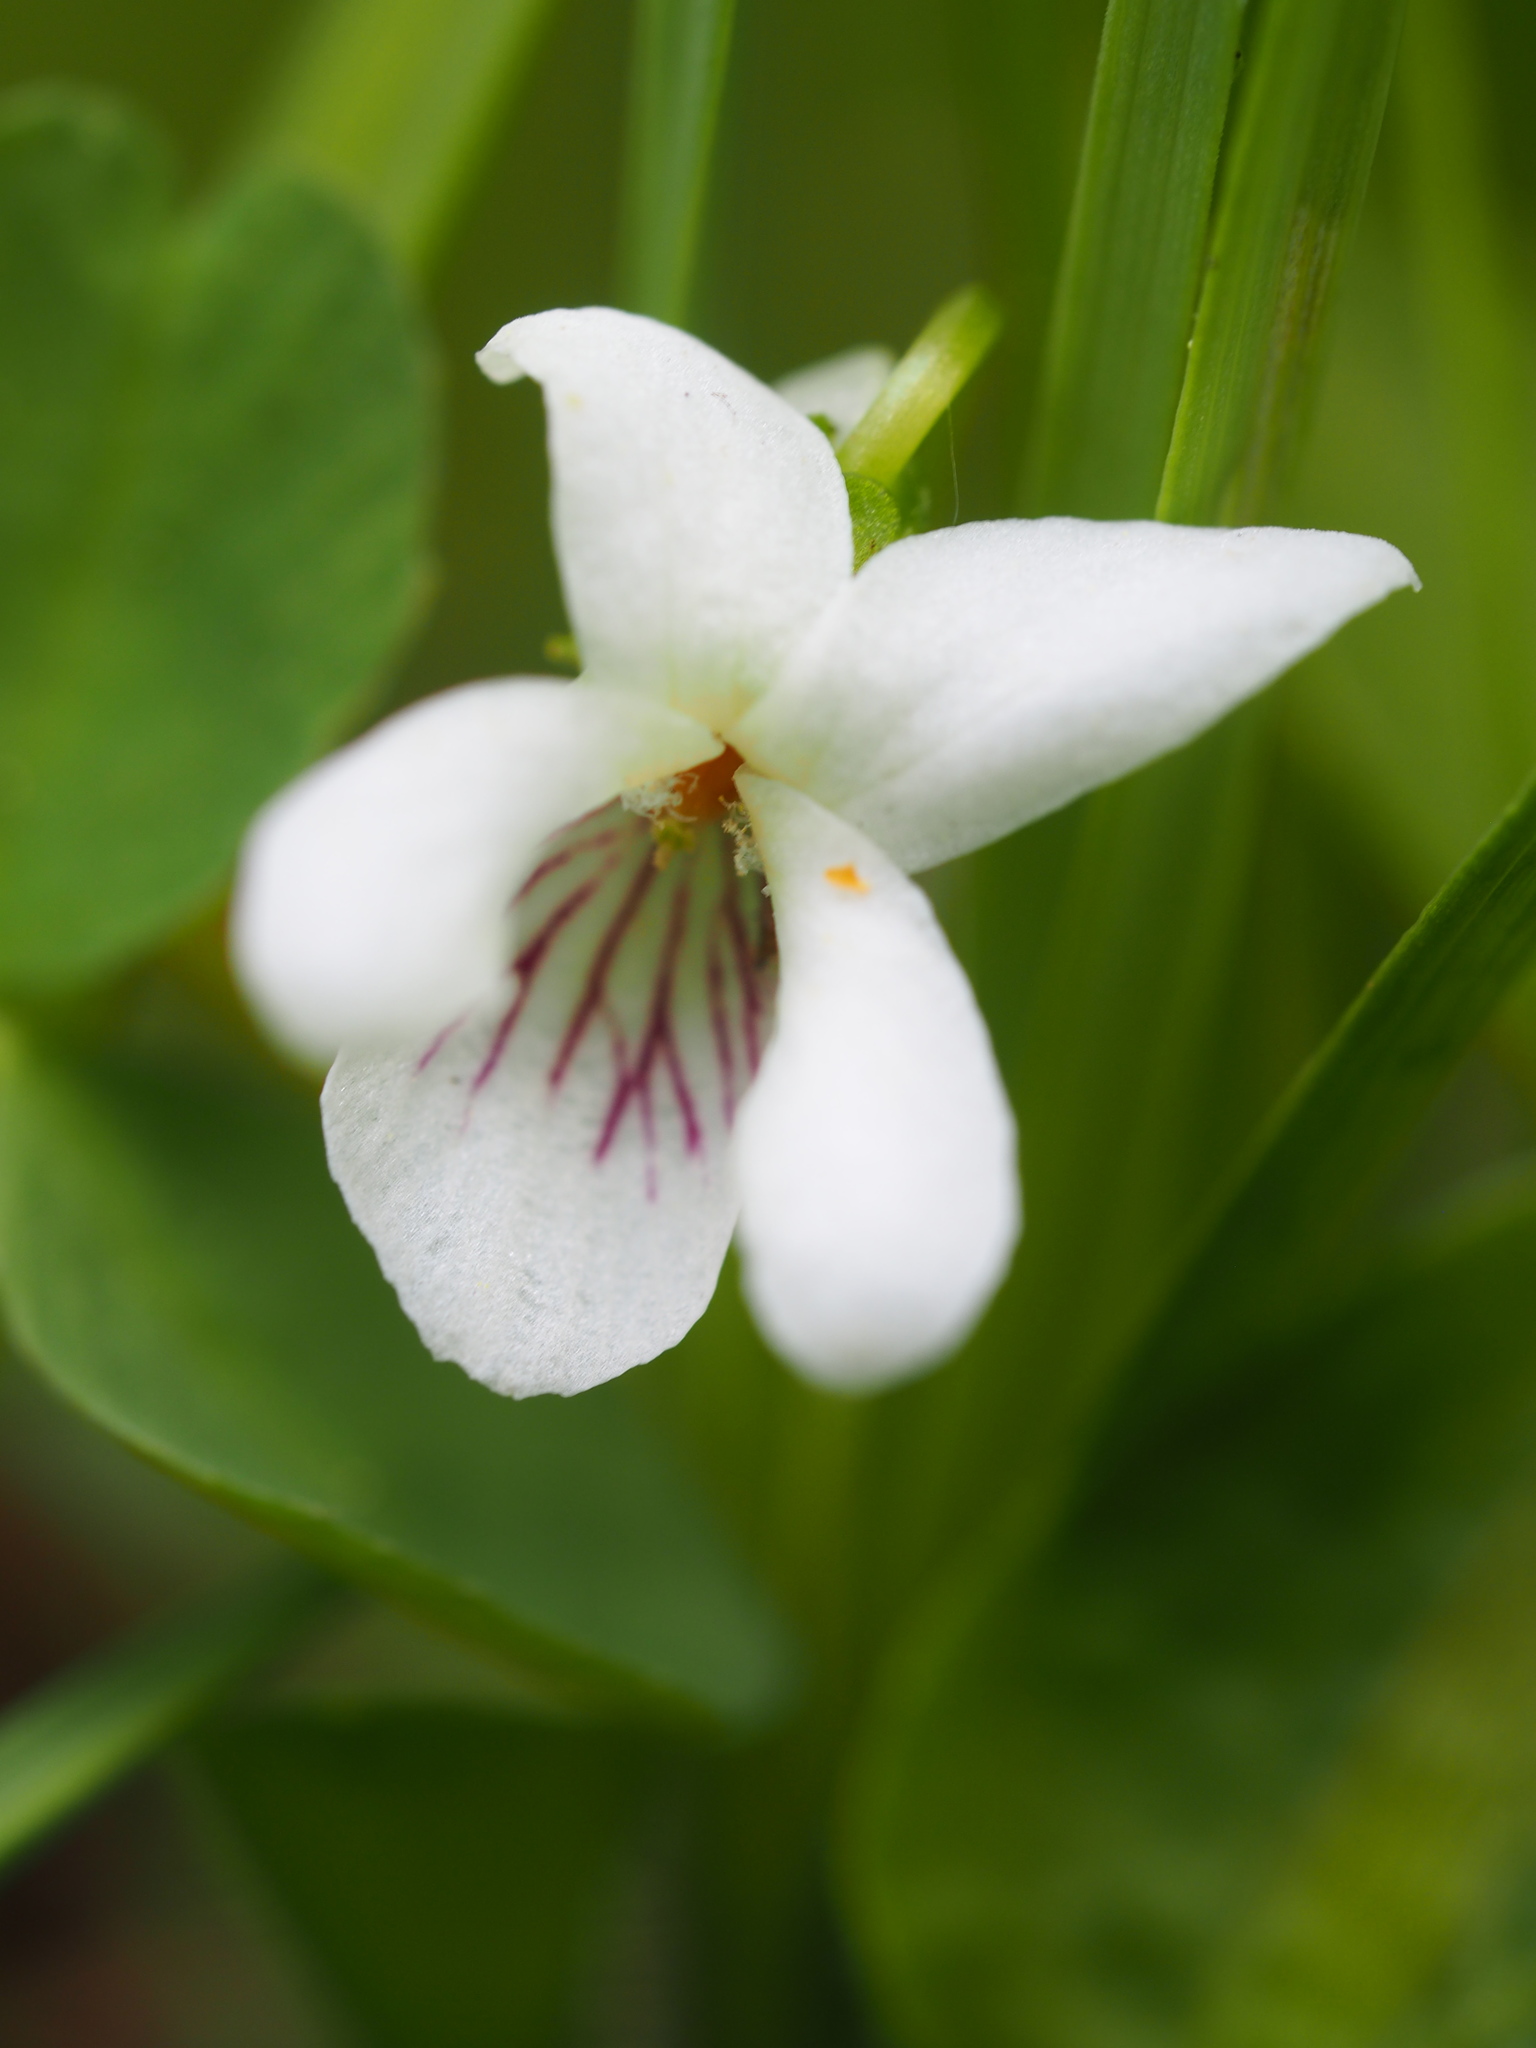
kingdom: Plantae
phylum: Tracheophyta
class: Magnoliopsida
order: Malpighiales
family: Violaceae
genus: Viola
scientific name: Viola macloskeyi
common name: Macloskey's violet
